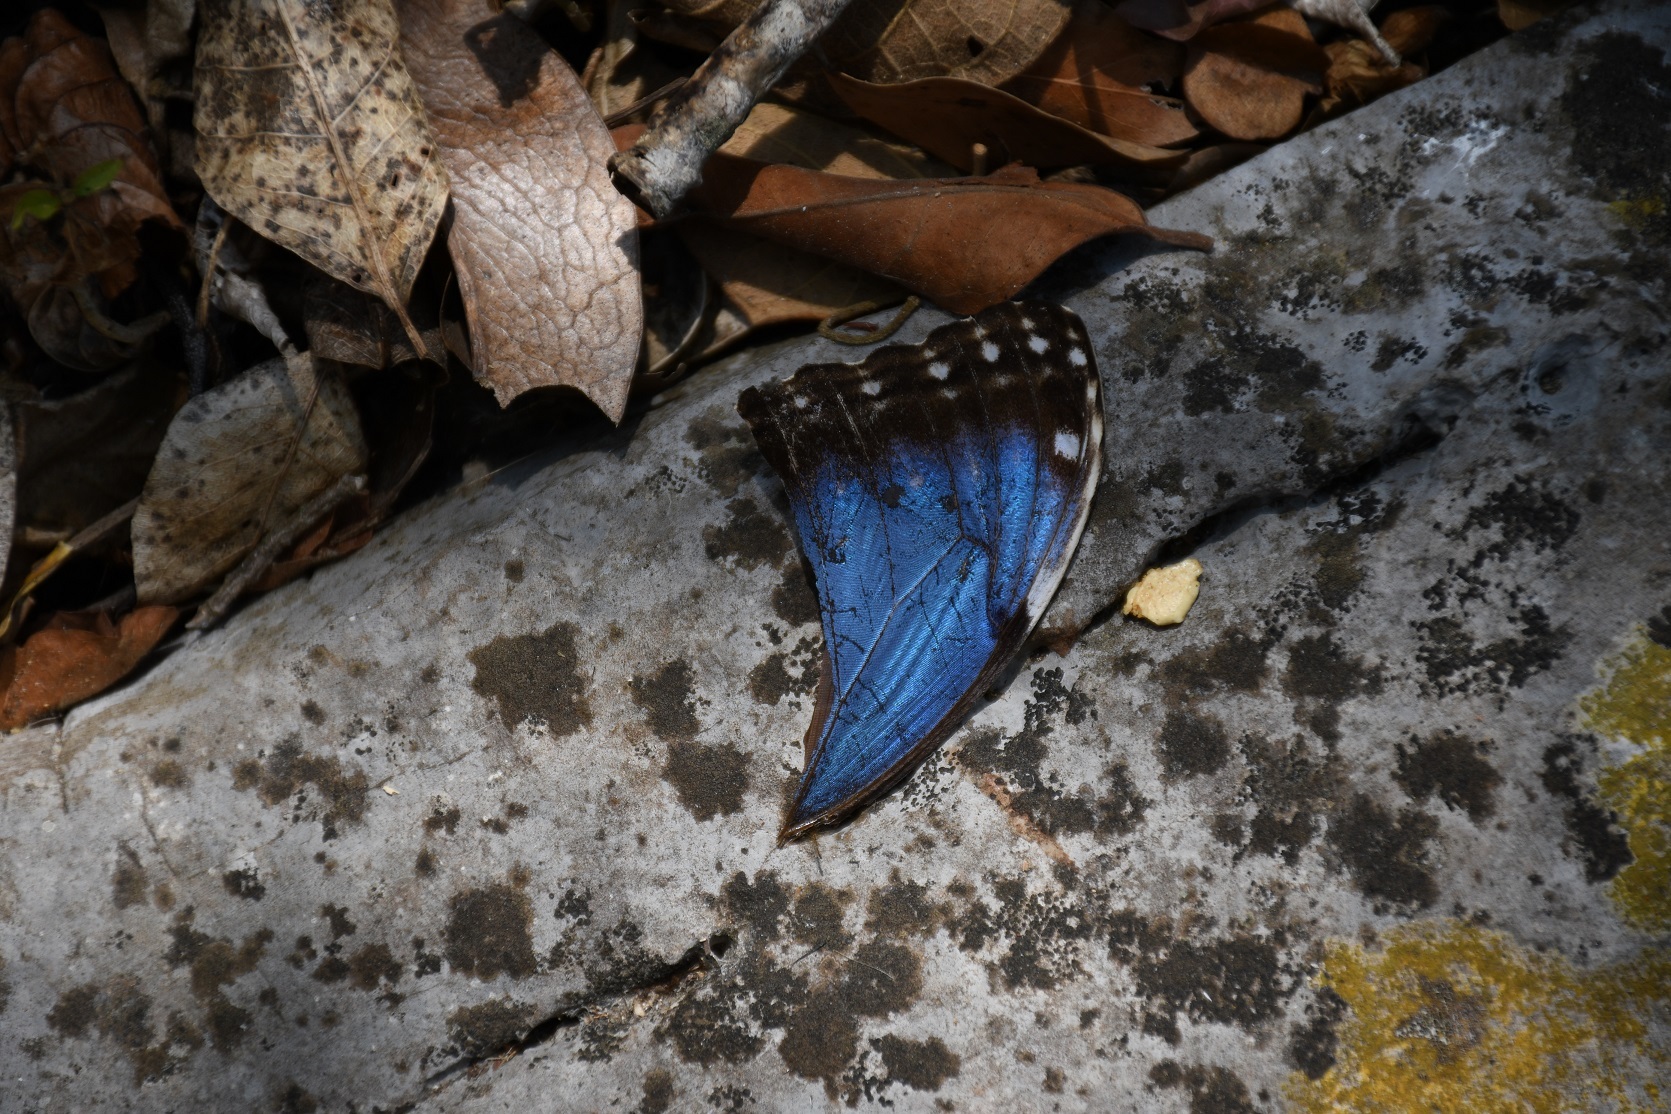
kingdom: Animalia
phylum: Arthropoda
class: Insecta
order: Lepidoptera
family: Nymphalidae
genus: Morpho
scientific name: Morpho helenor
